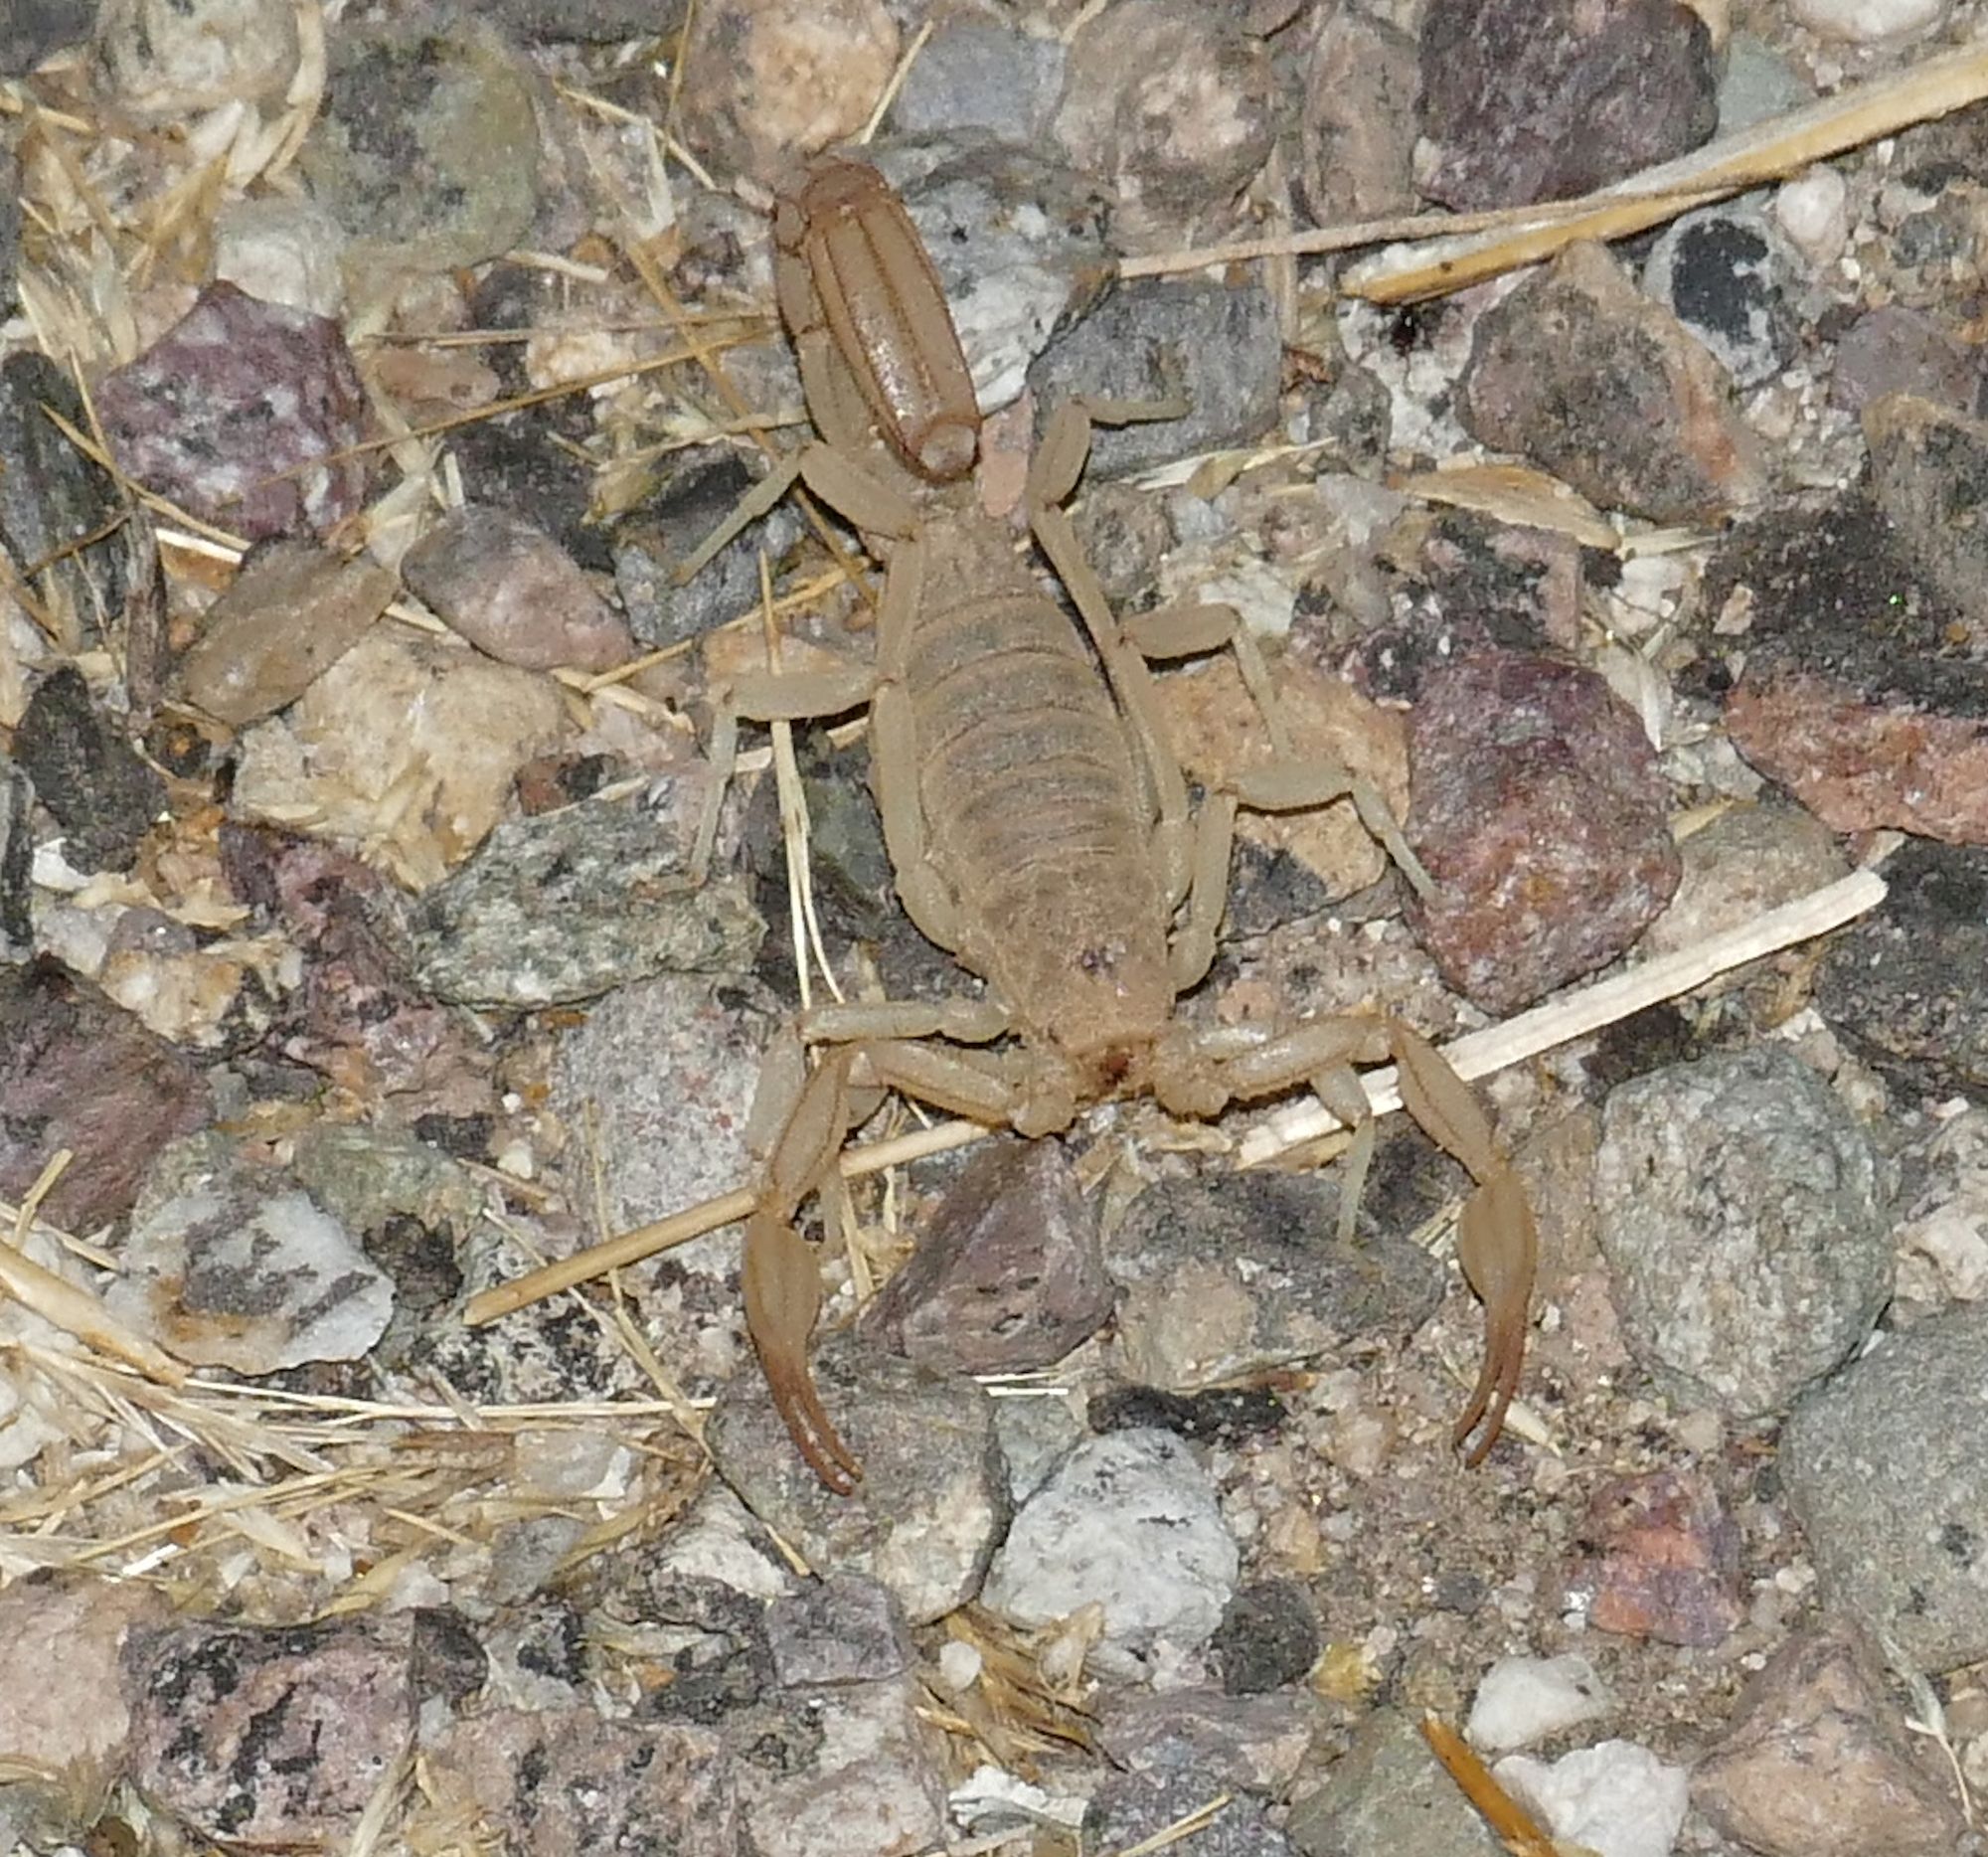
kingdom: Animalia
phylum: Arthropoda
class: Arachnida
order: Scorpiones
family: Vaejovidae
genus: Paravaejovis
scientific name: Paravaejovis confusus
